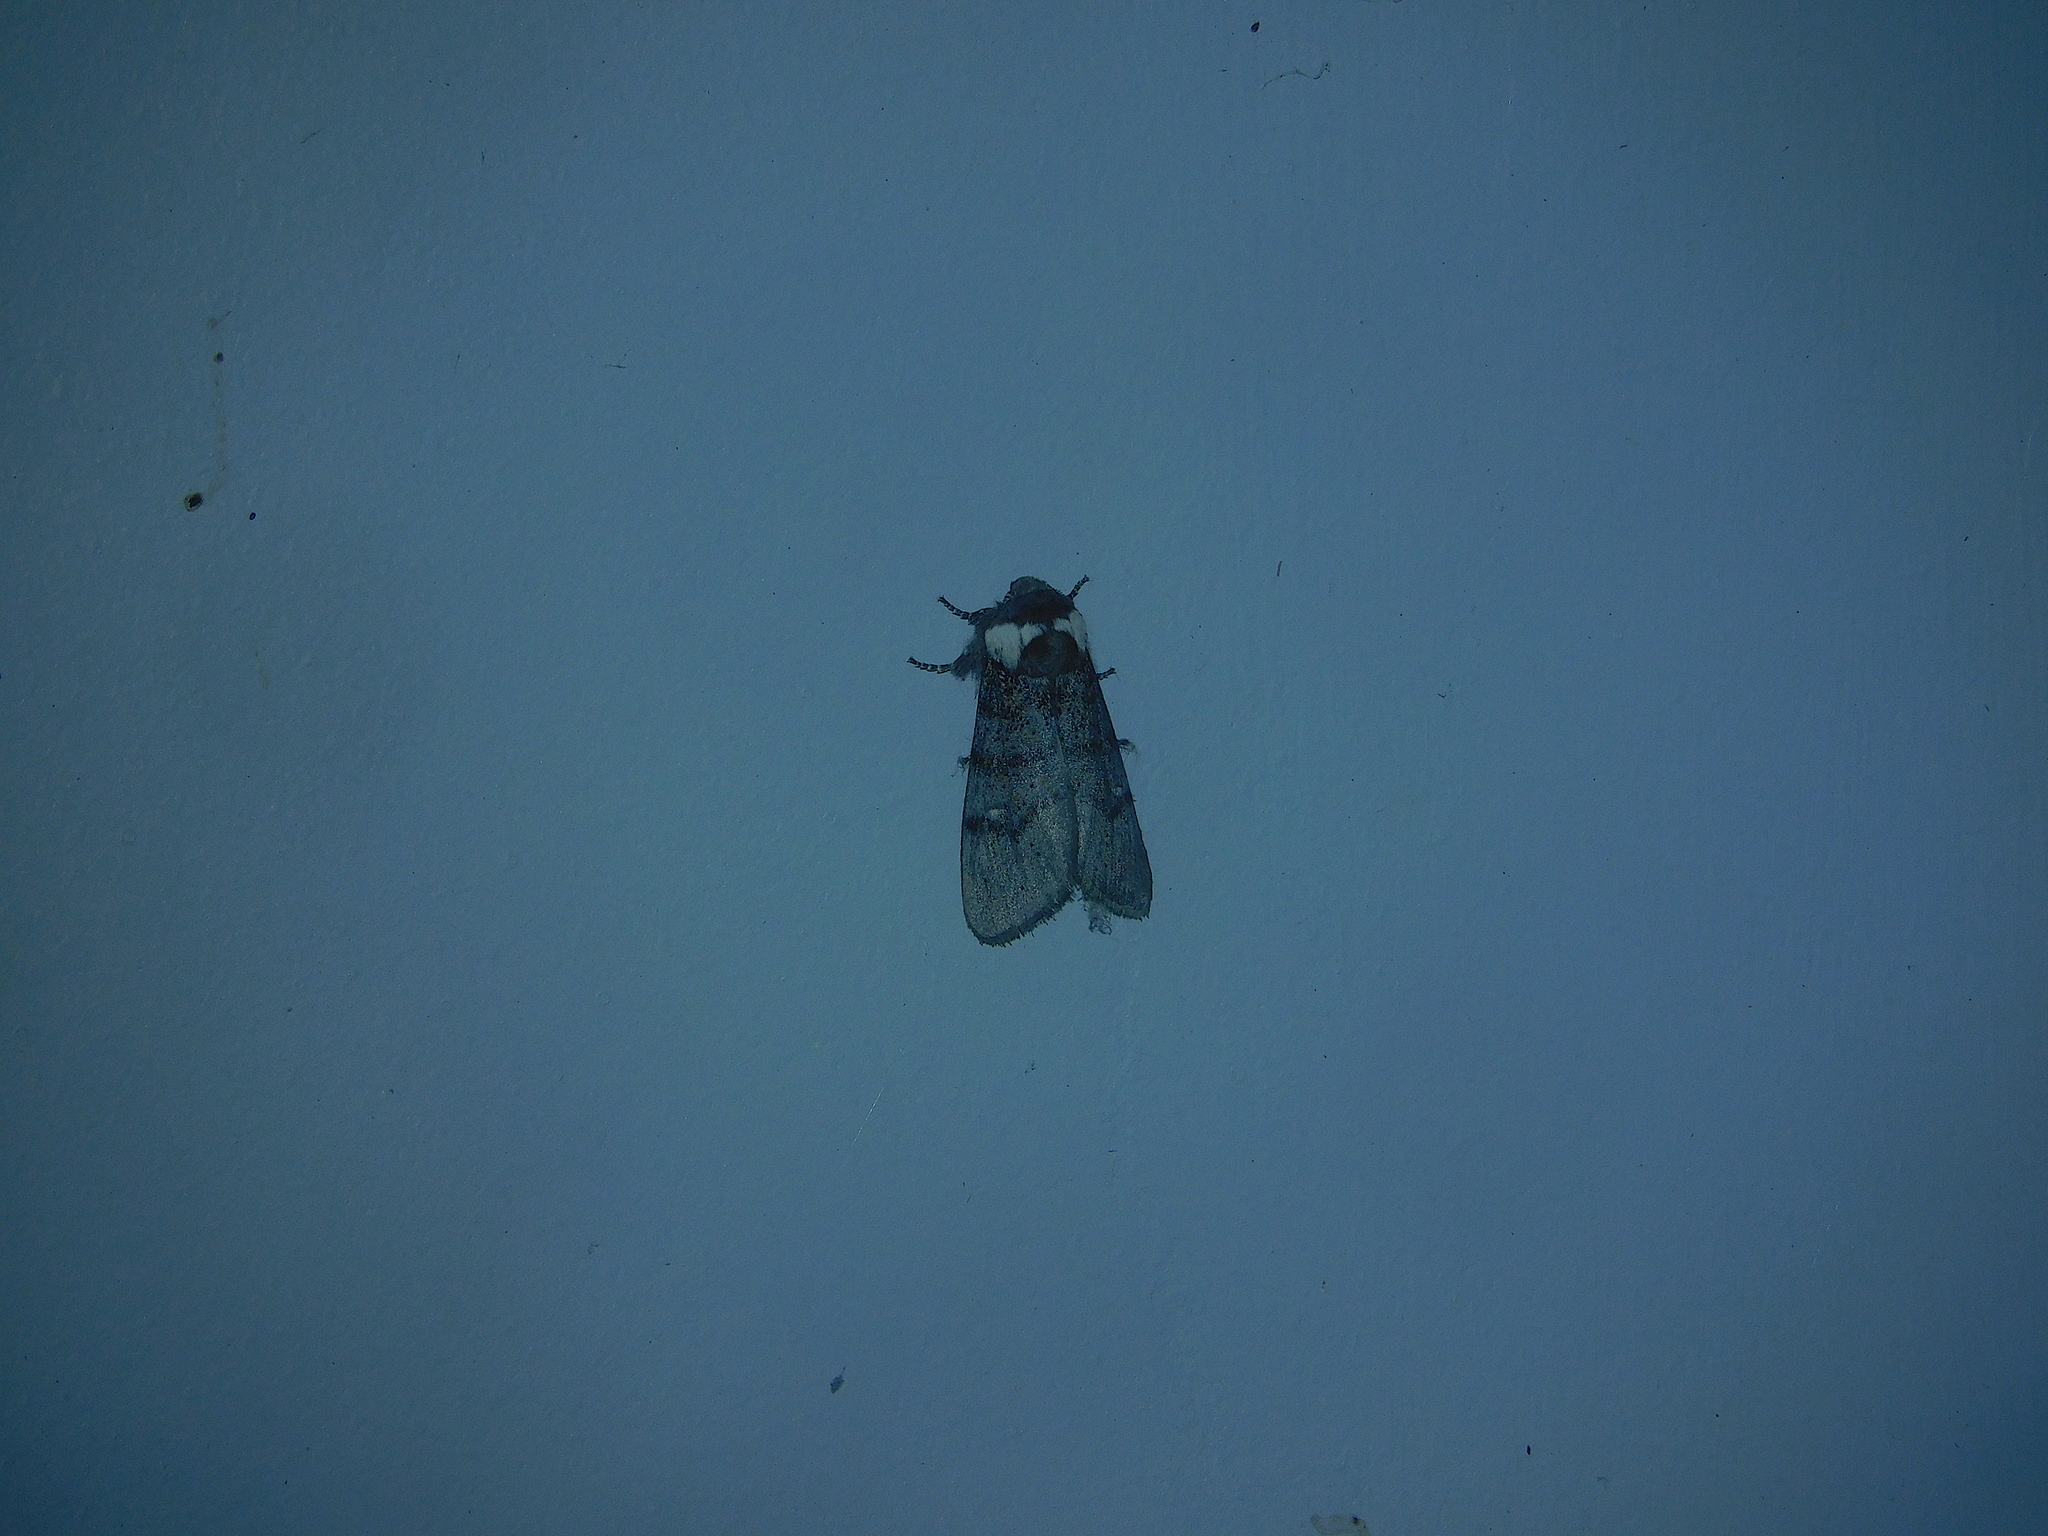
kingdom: Animalia
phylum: Arthropoda
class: Insecta
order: Lepidoptera
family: Oenosandridae
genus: Oenosandra
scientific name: Oenosandra boisduvalii
